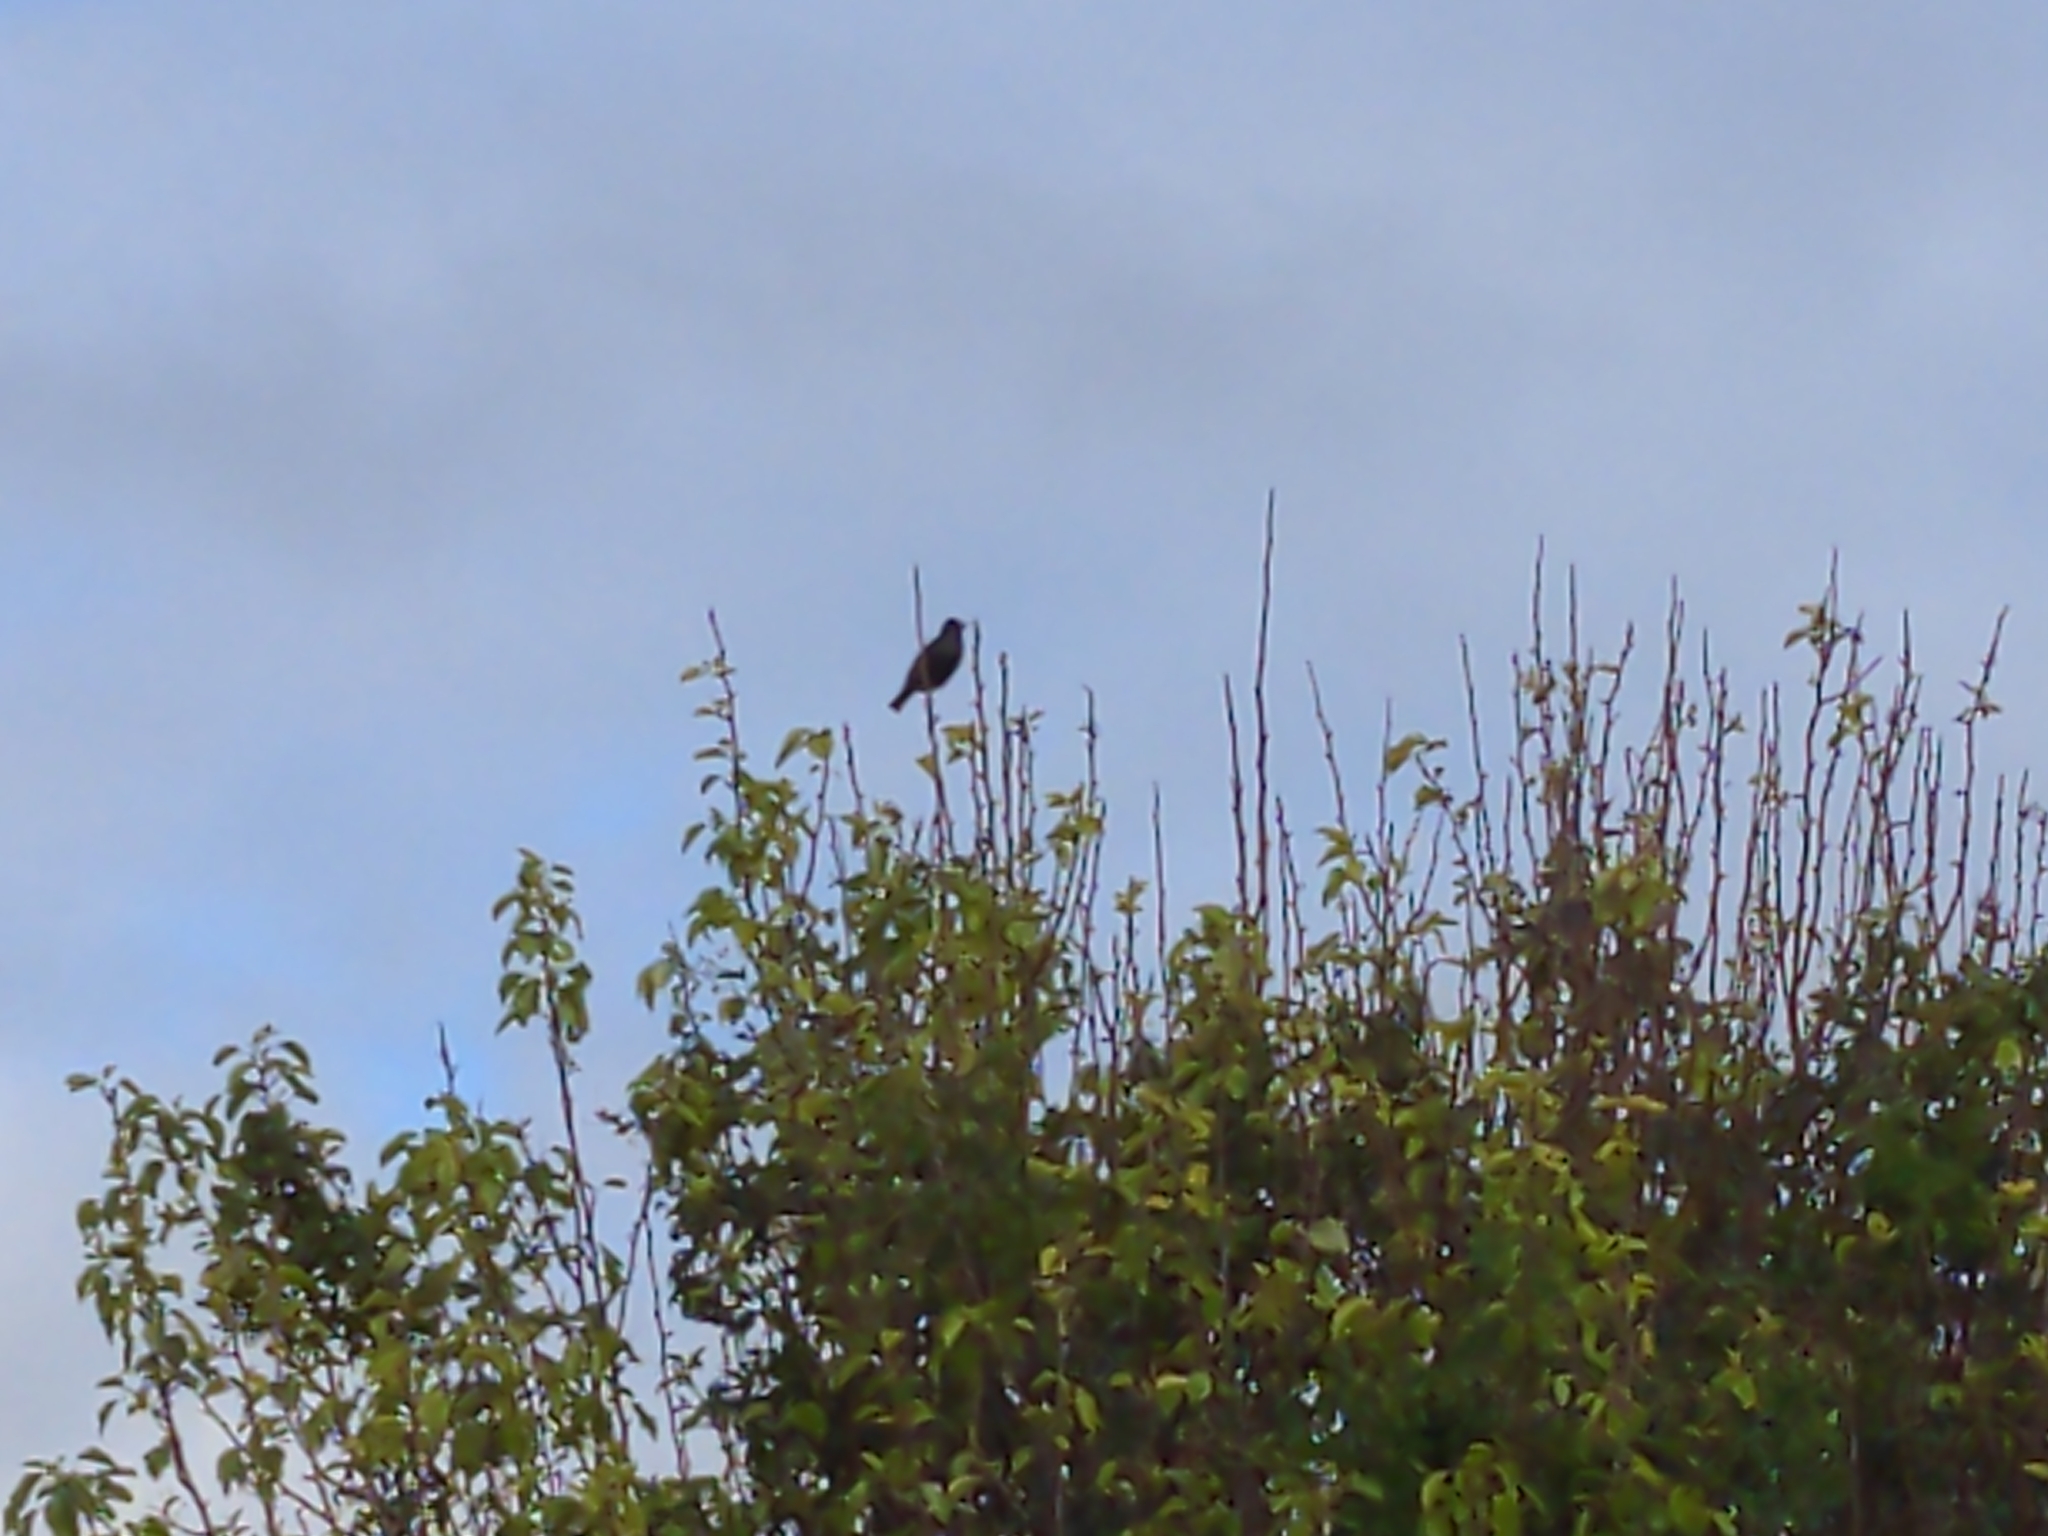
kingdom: Animalia
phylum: Chordata
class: Aves
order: Passeriformes
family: Turdidae
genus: Turdus
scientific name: Turdus merula
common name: Common blackbird
